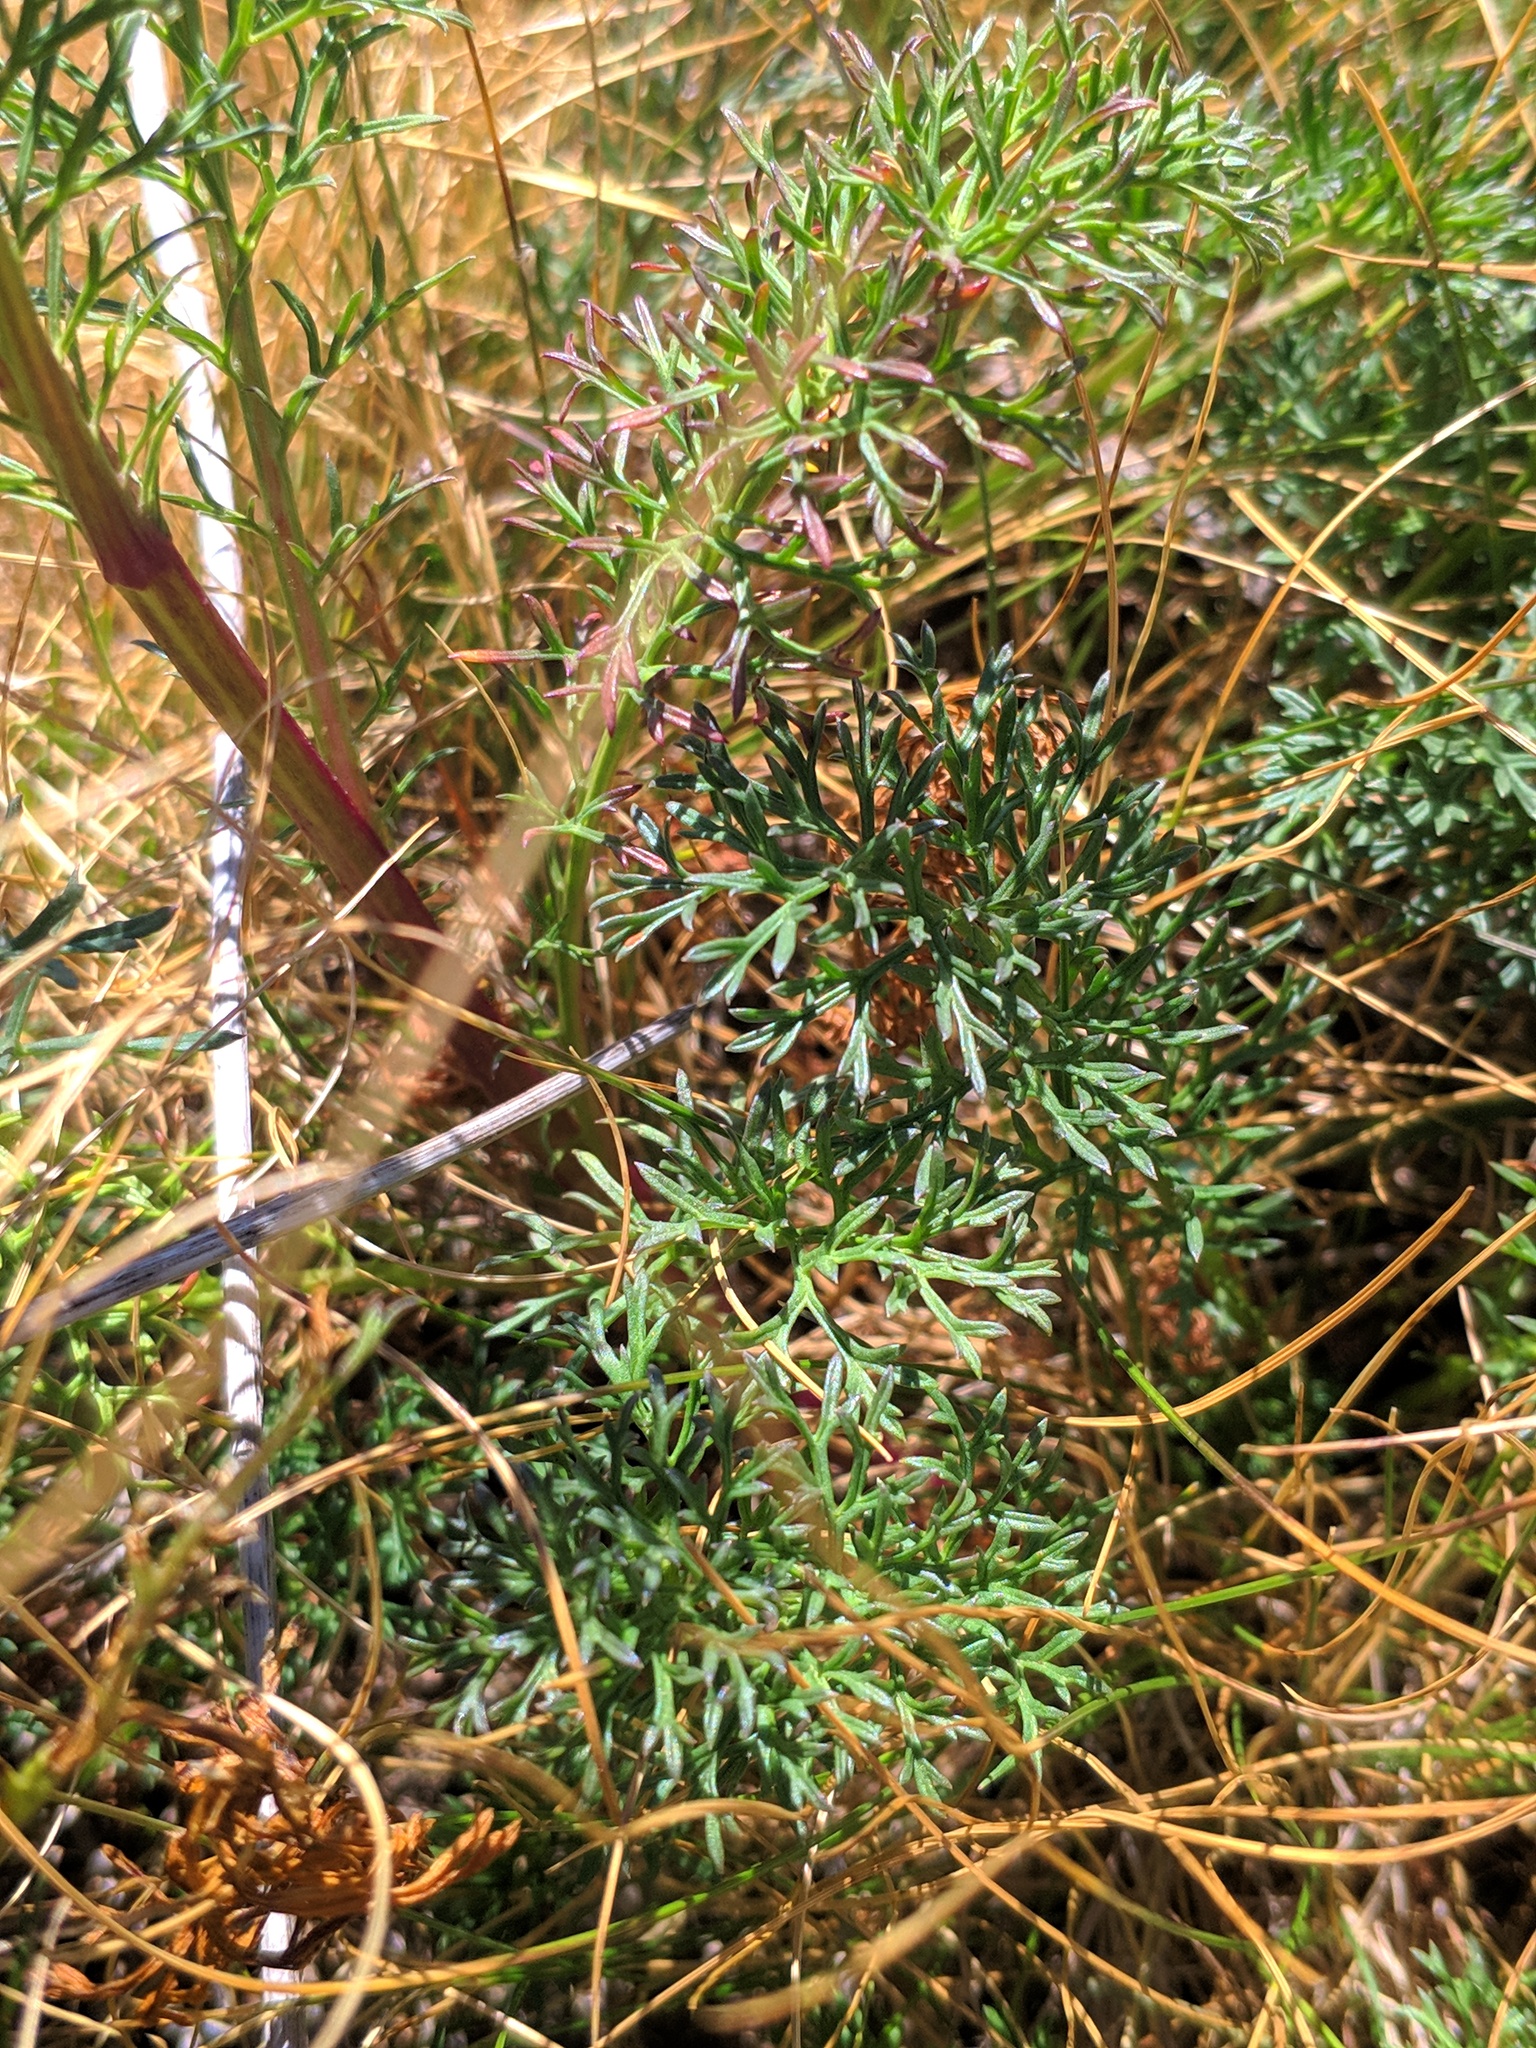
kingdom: Plantae
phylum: Tracheophyta
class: Magnoliopsida
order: Asterales
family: Asteraceae
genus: Jacobaea
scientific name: Jacobaea adonidifolia
